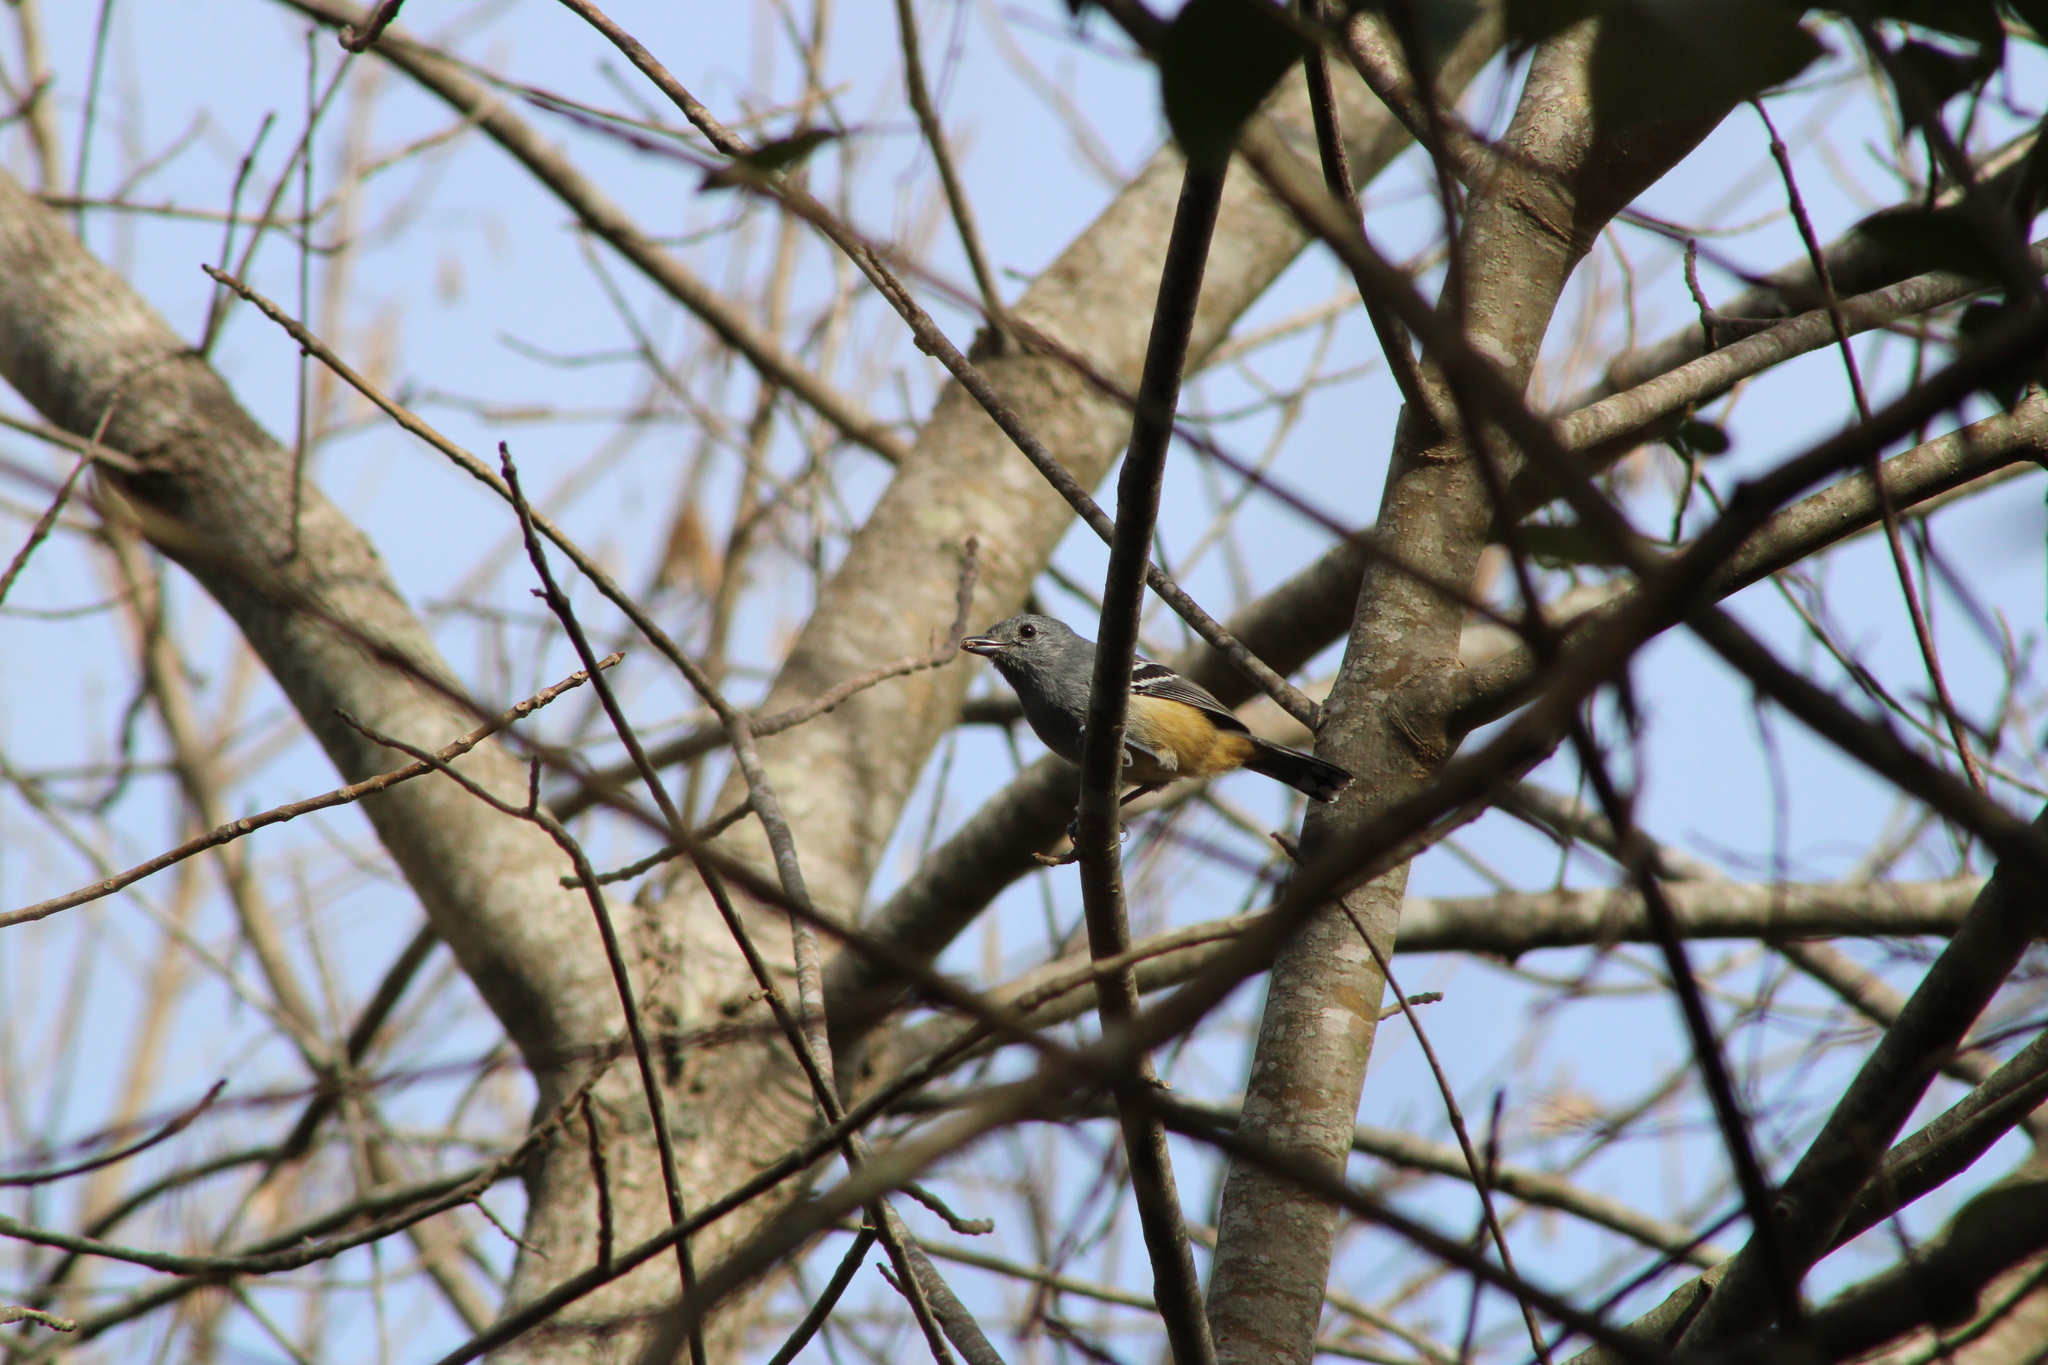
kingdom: Animalia
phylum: Chordata
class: Aves
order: Passeriformes
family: Thamnophilidae
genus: Thamnophilus
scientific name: Thamnophilus caerulescens
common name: Variable antshrike
